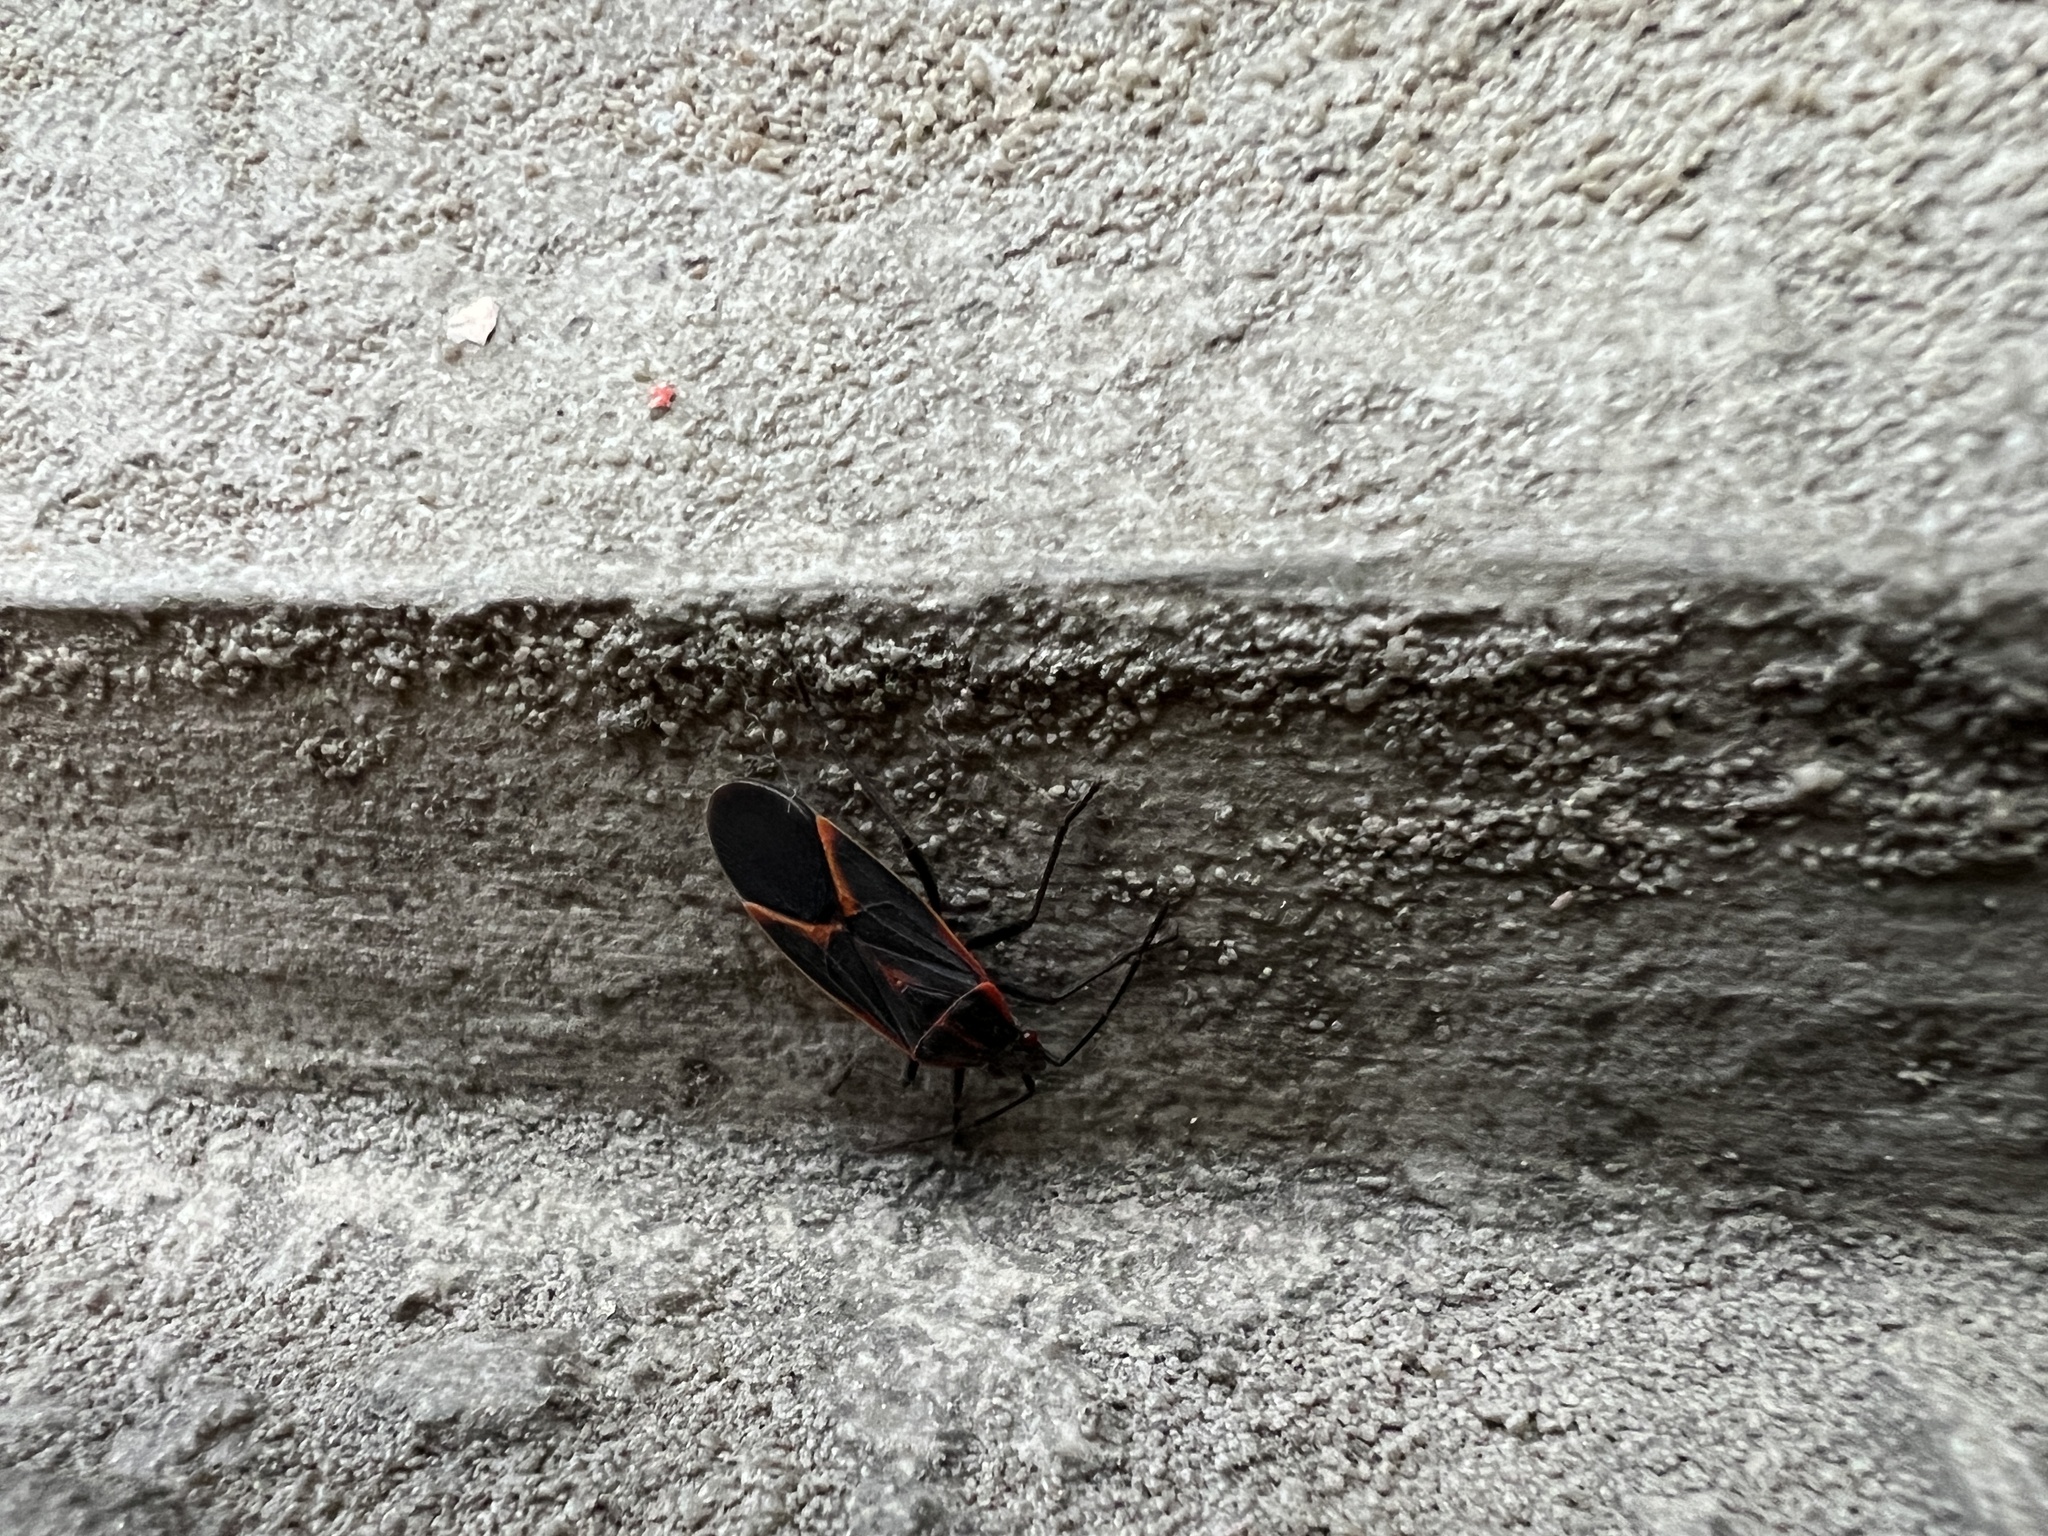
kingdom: Animalia
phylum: Arthropoda
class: Insecta
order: Hemiptera
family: Rhopalidae
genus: Boisea
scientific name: Boisea trivittata
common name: Boxelder bug
